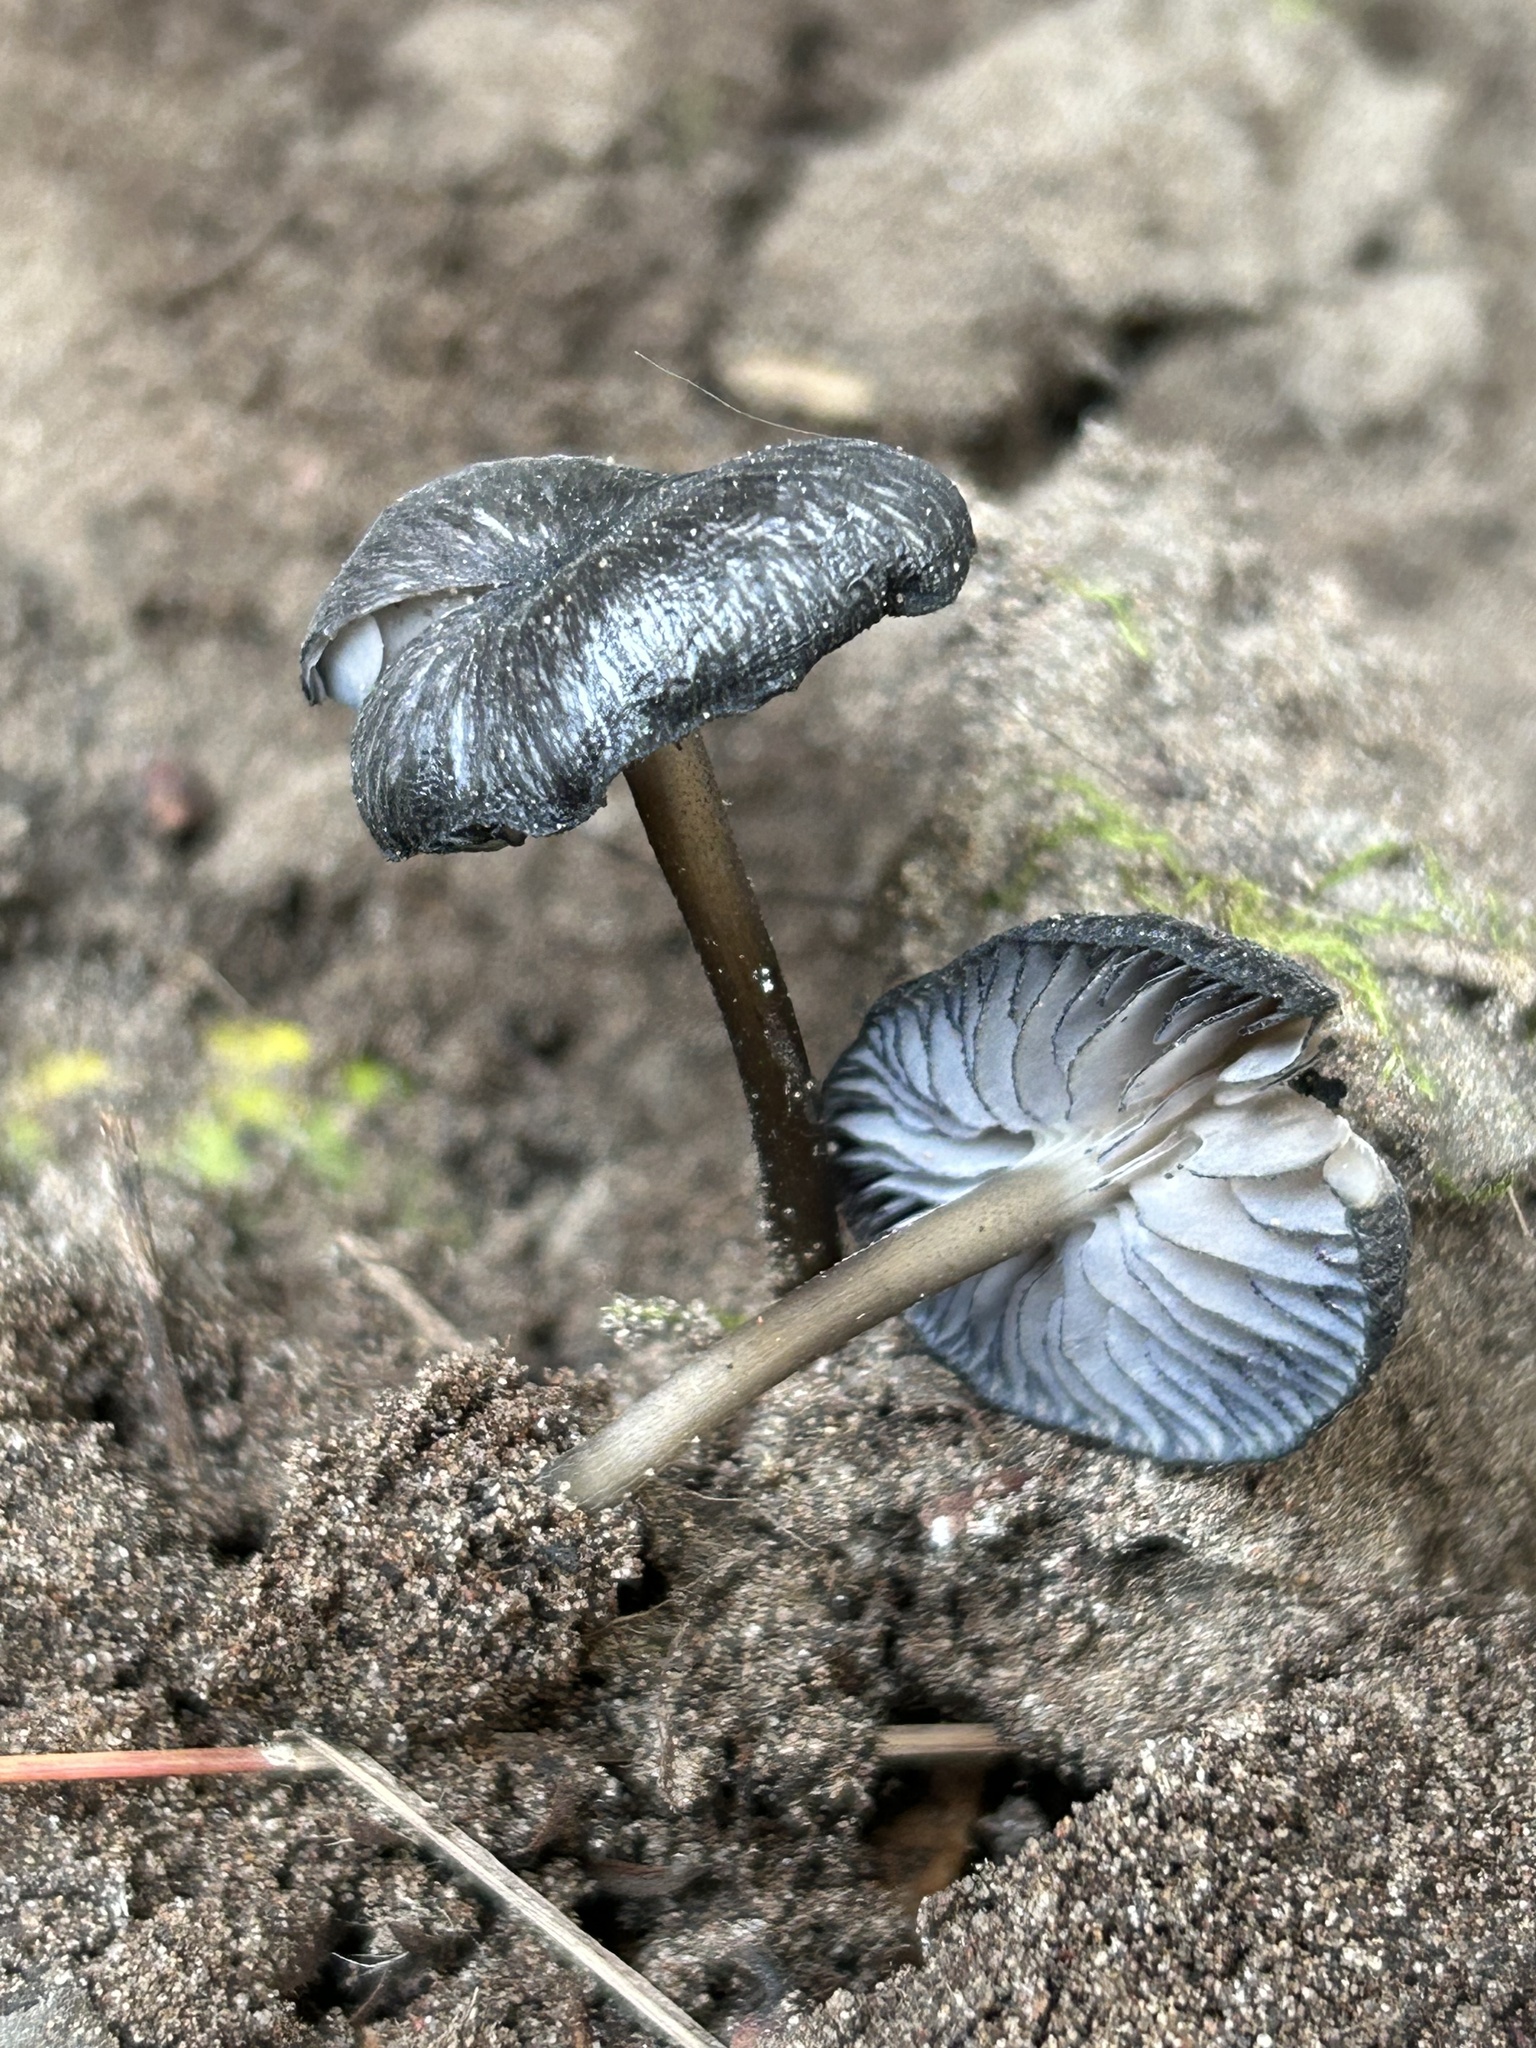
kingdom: Fungi
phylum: Basidiomycota
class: Agaricomycetes
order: Agaricales
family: Entolomataceae
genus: Entoloma
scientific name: Entoloma serrulatum
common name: Blue edge pinkgill
